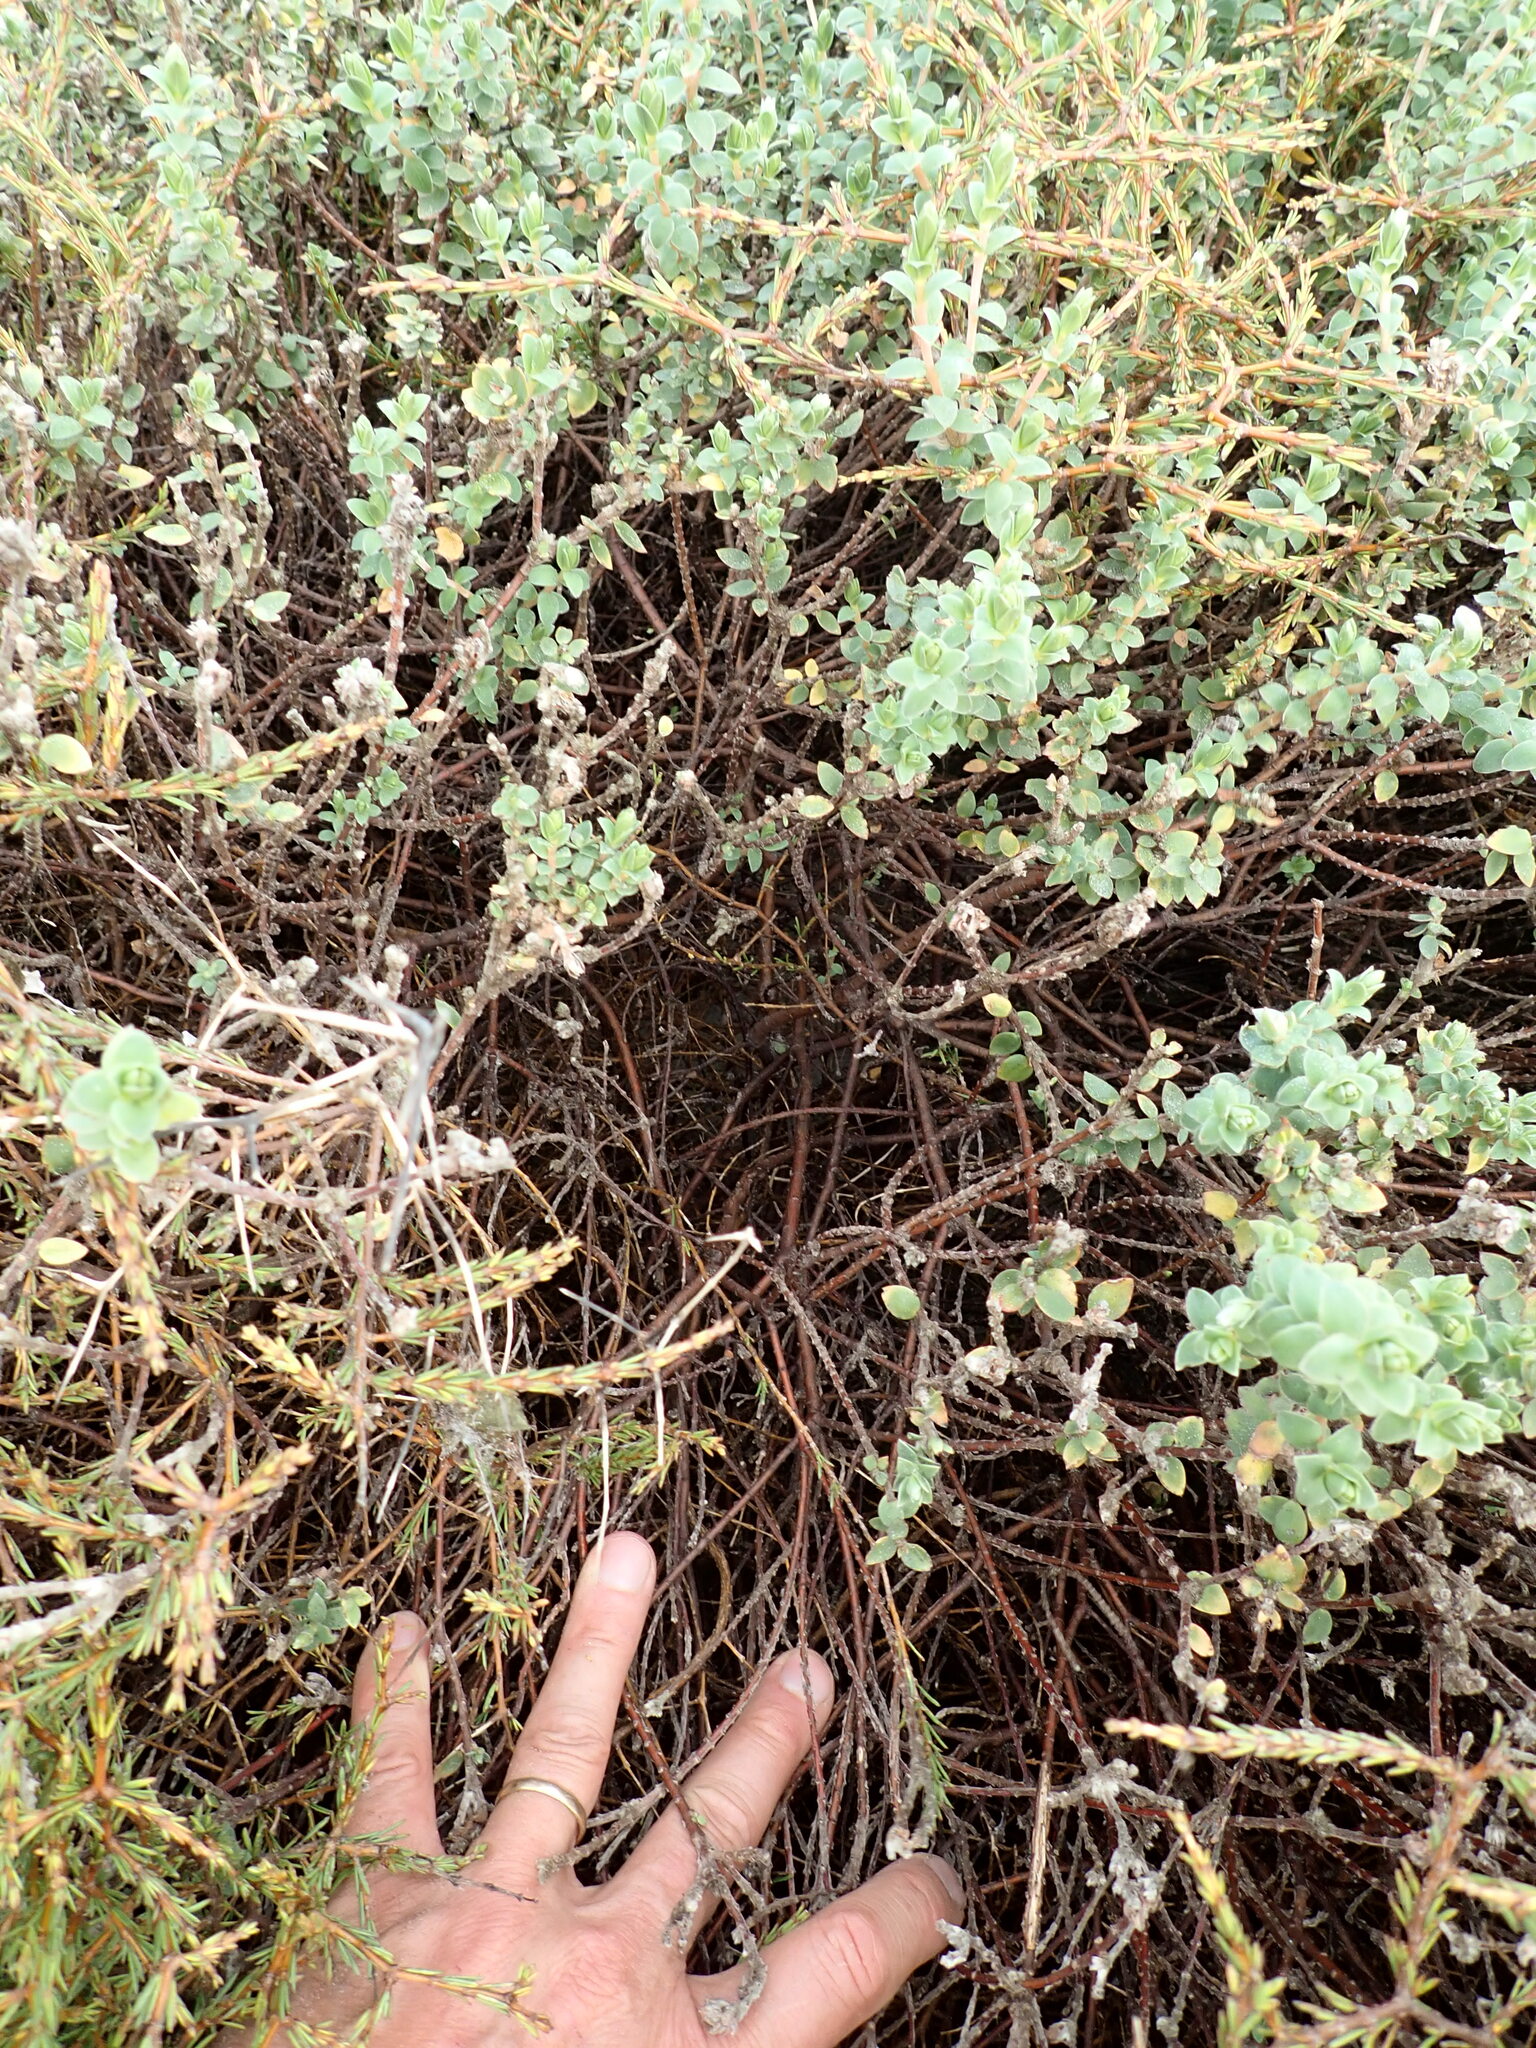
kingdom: Plantae
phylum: Tracheophyta
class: Magnoliopsida
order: Malvales
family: Thymelaeaceae
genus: Pimelea
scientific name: Pimelea villosa
